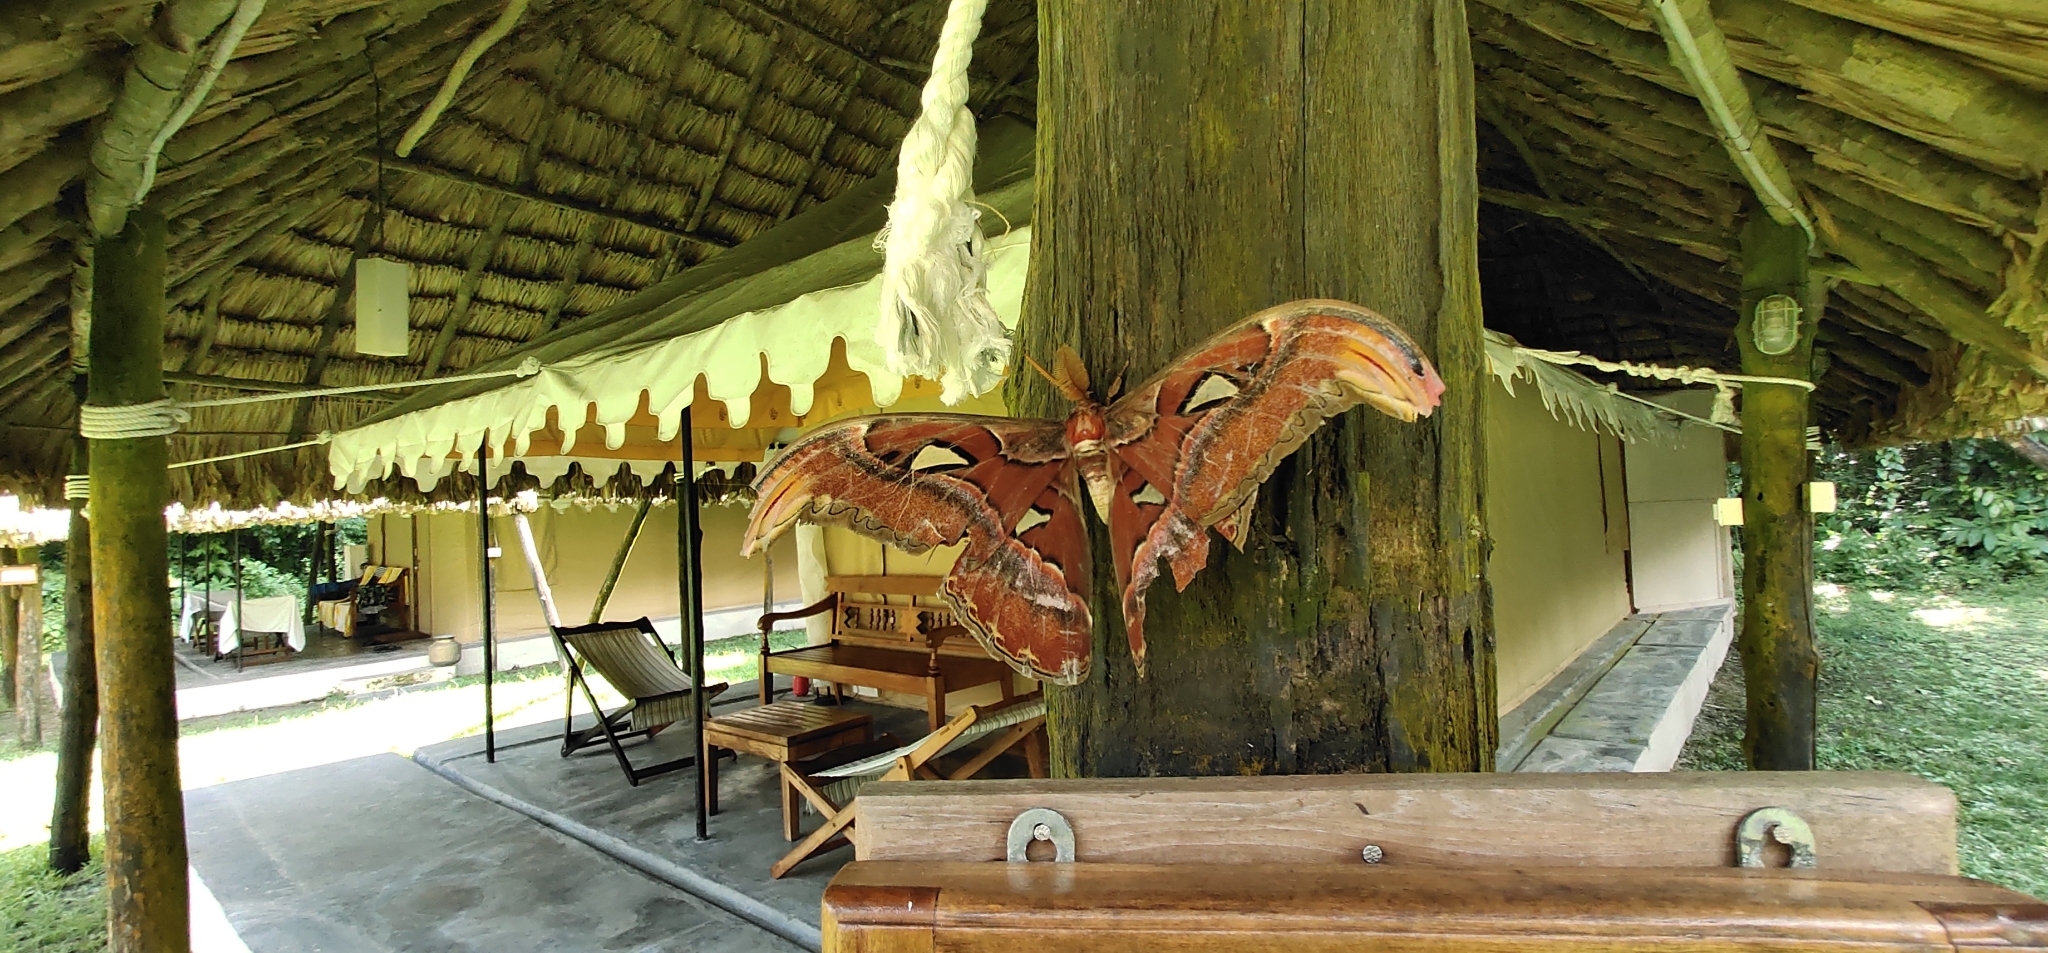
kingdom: Animalia
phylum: Arthropoda
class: Insecta
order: Lepidoptera
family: Saturniidae
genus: Attacus
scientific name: Attacus mcmulleni
